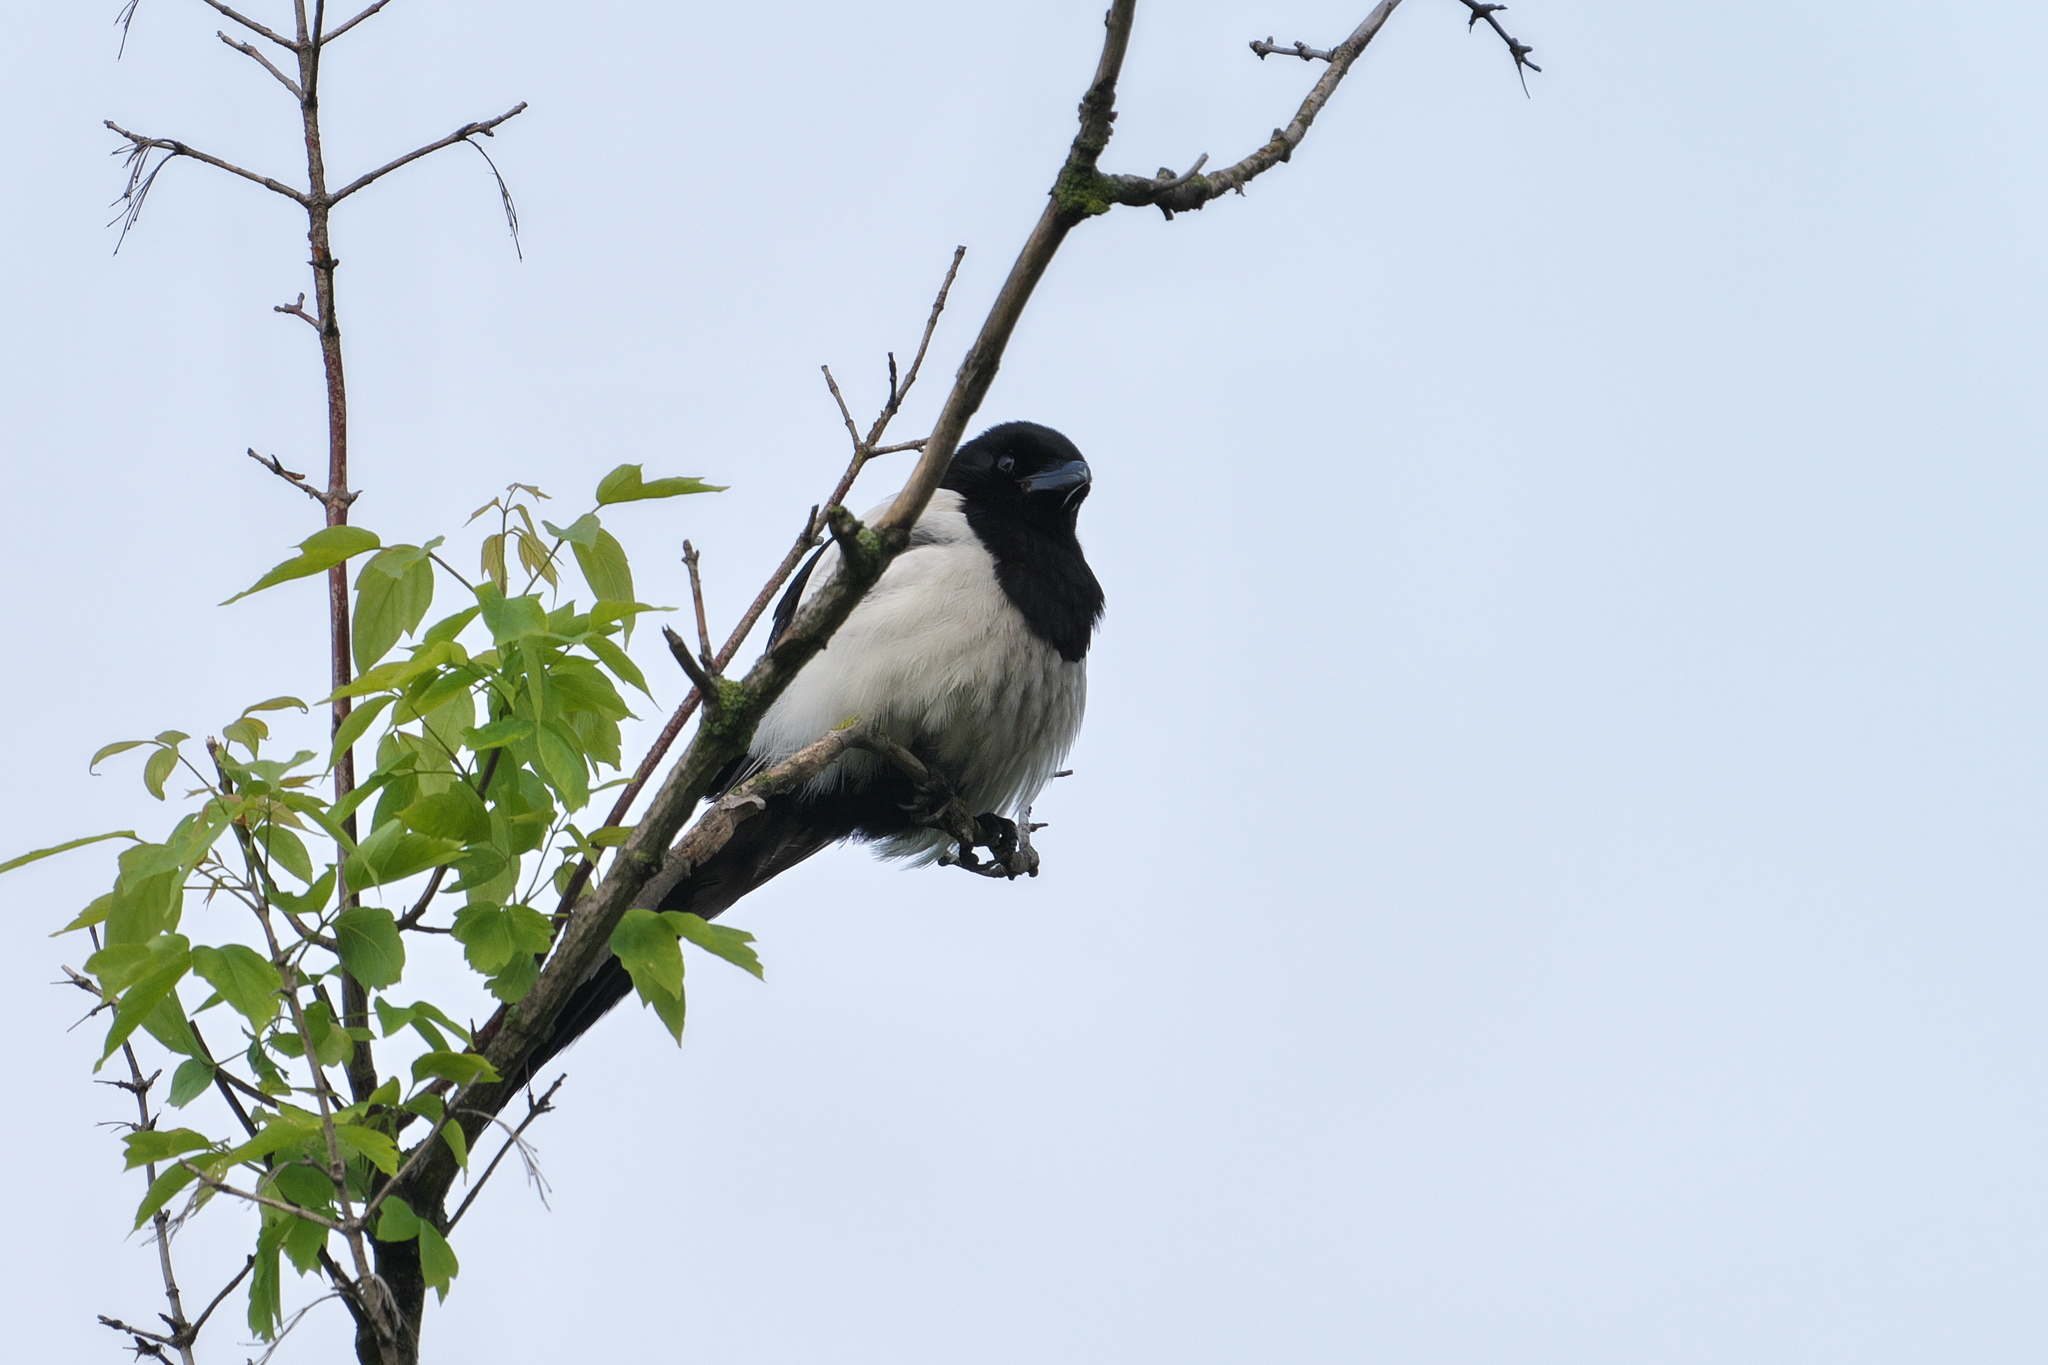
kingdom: Animalia
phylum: Chordata
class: Aves
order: Passeriformes
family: Corvidae
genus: Pica
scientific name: Pica pica
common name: Eurasian magpie
